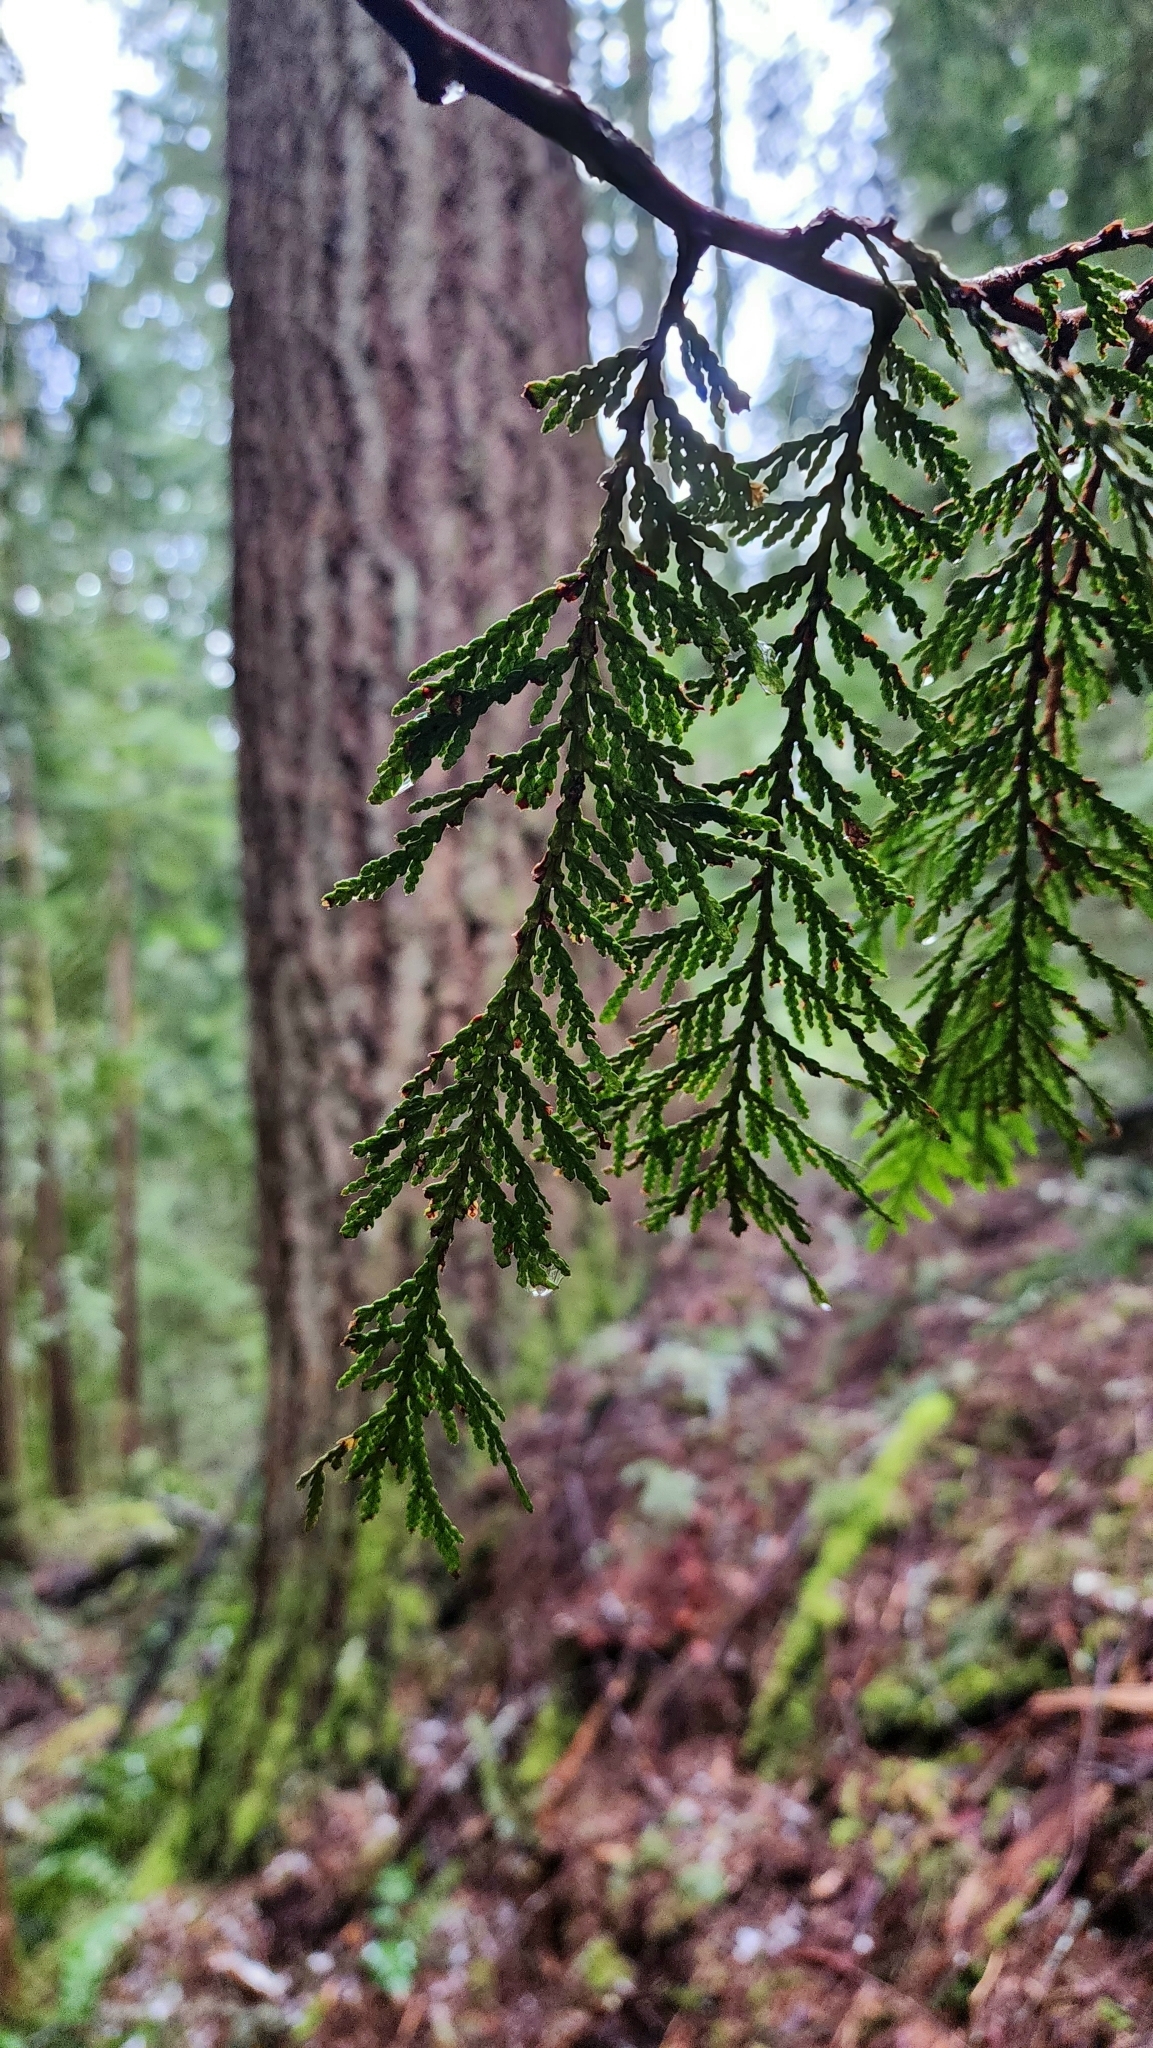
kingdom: Plantae
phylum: Tracheophyta
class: Pinopsida
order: Pinales
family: Cupressaceae
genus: Thuja
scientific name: Thuja plicata
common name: Western red-cedar
